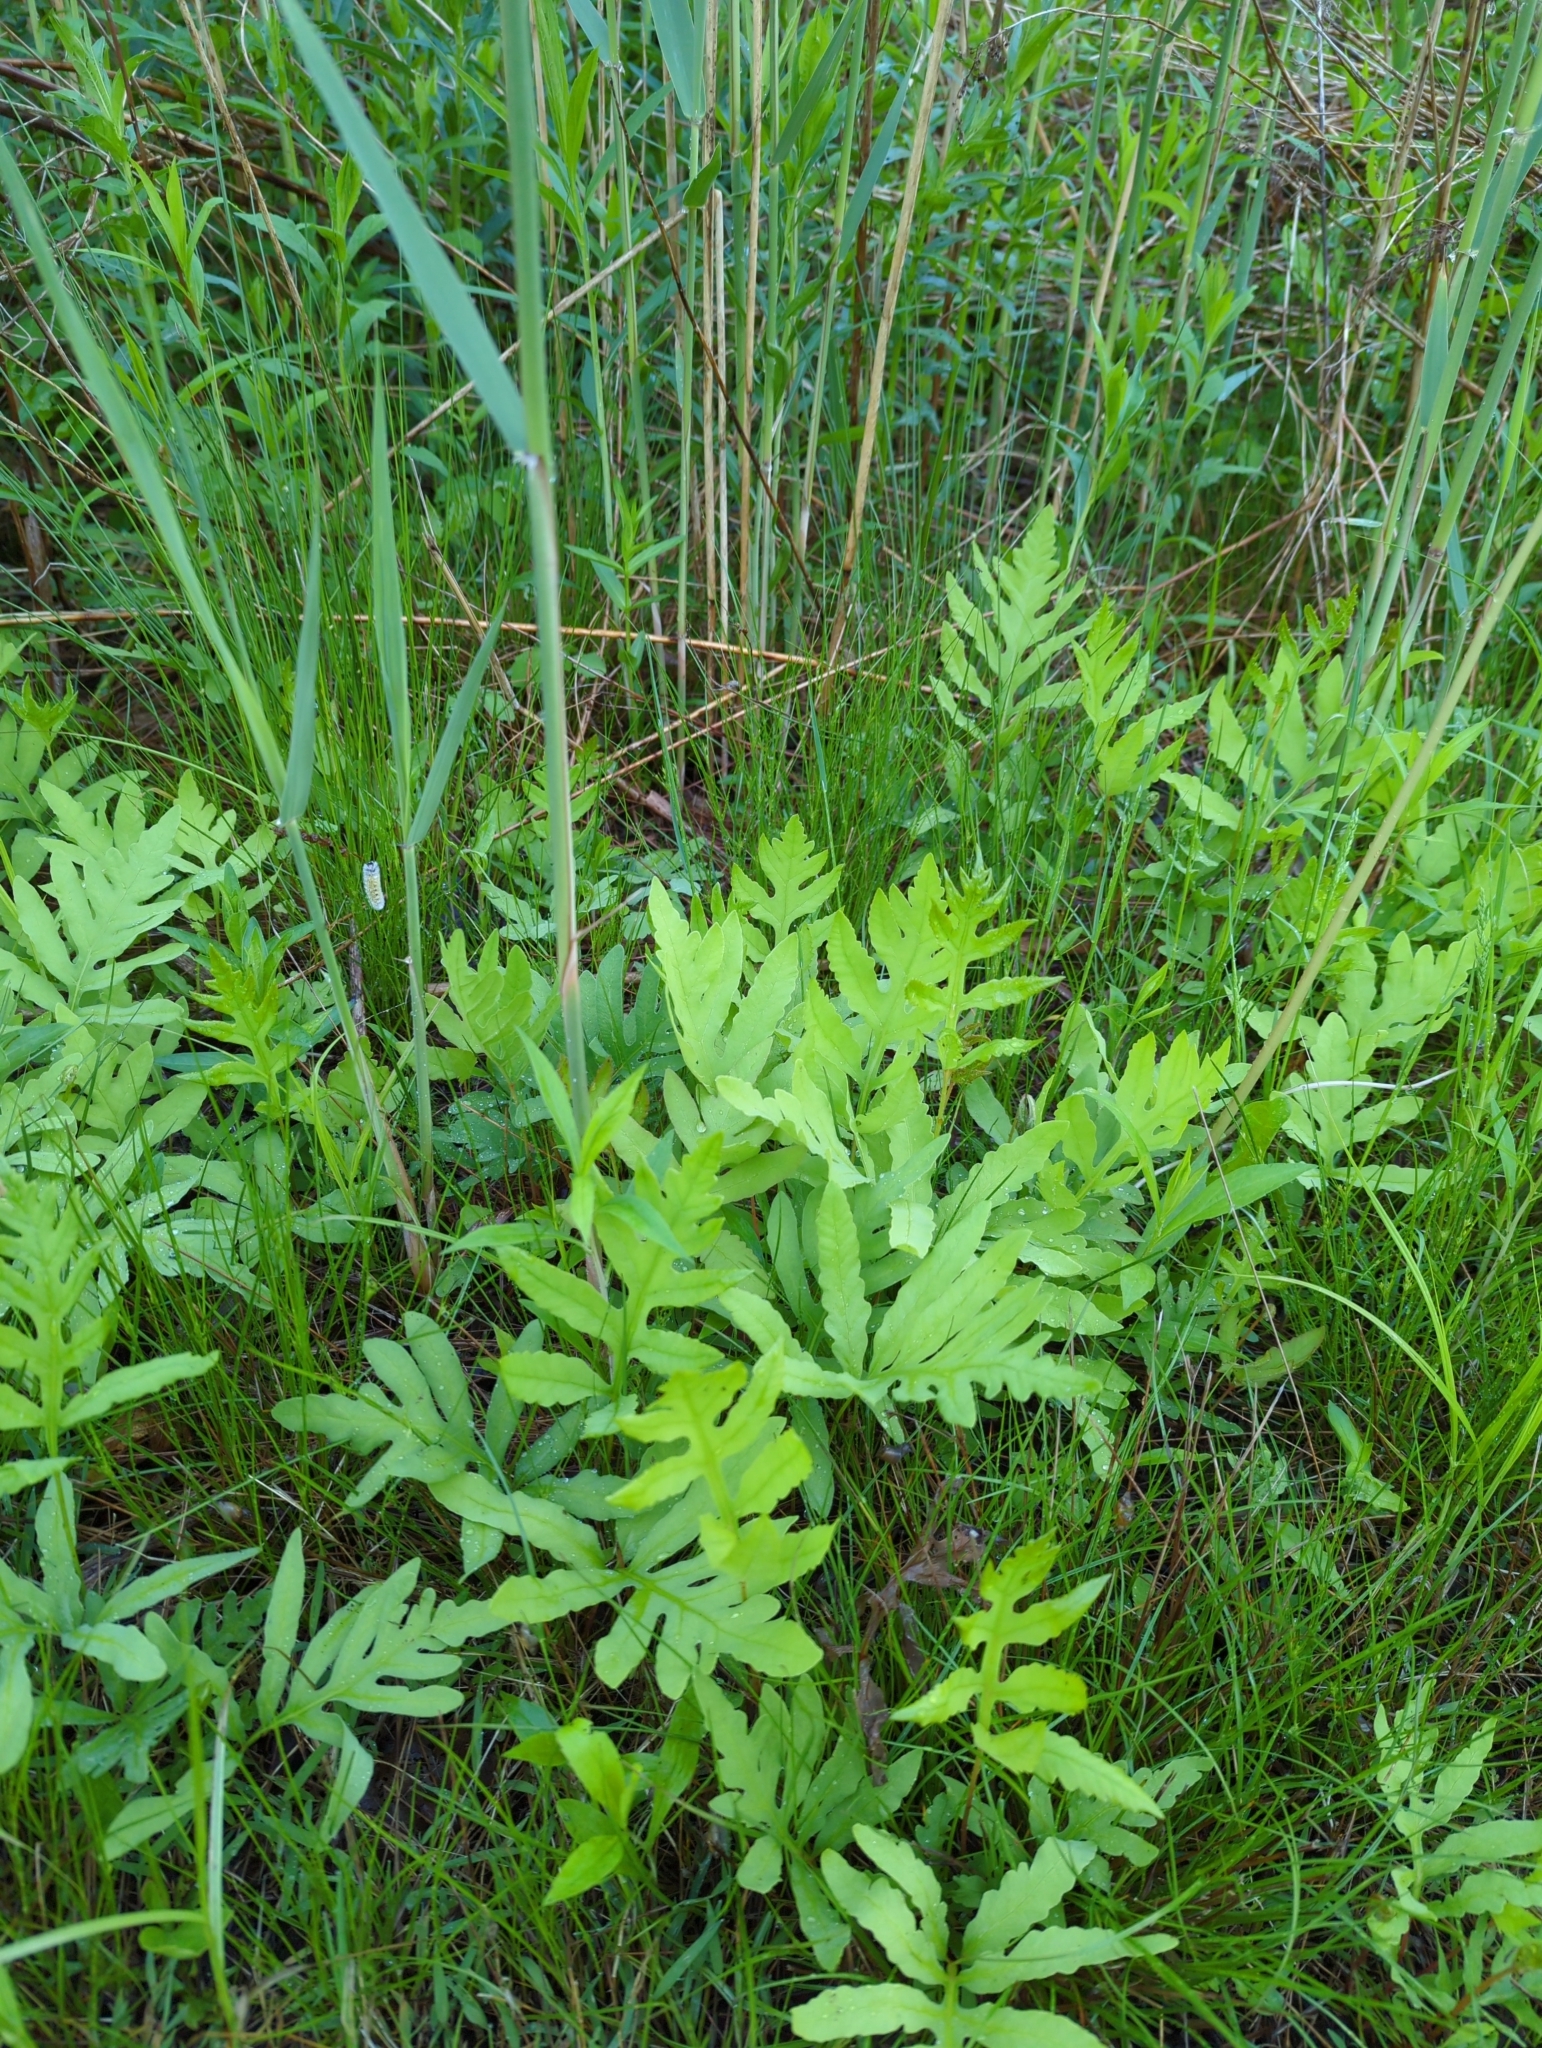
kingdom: Plantae
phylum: Tracheophyta
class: Polypodiopsida
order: Polypodiales
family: Onocleaceae
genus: Onoclea
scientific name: Onoclea sensibilis
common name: Sensitive fern
